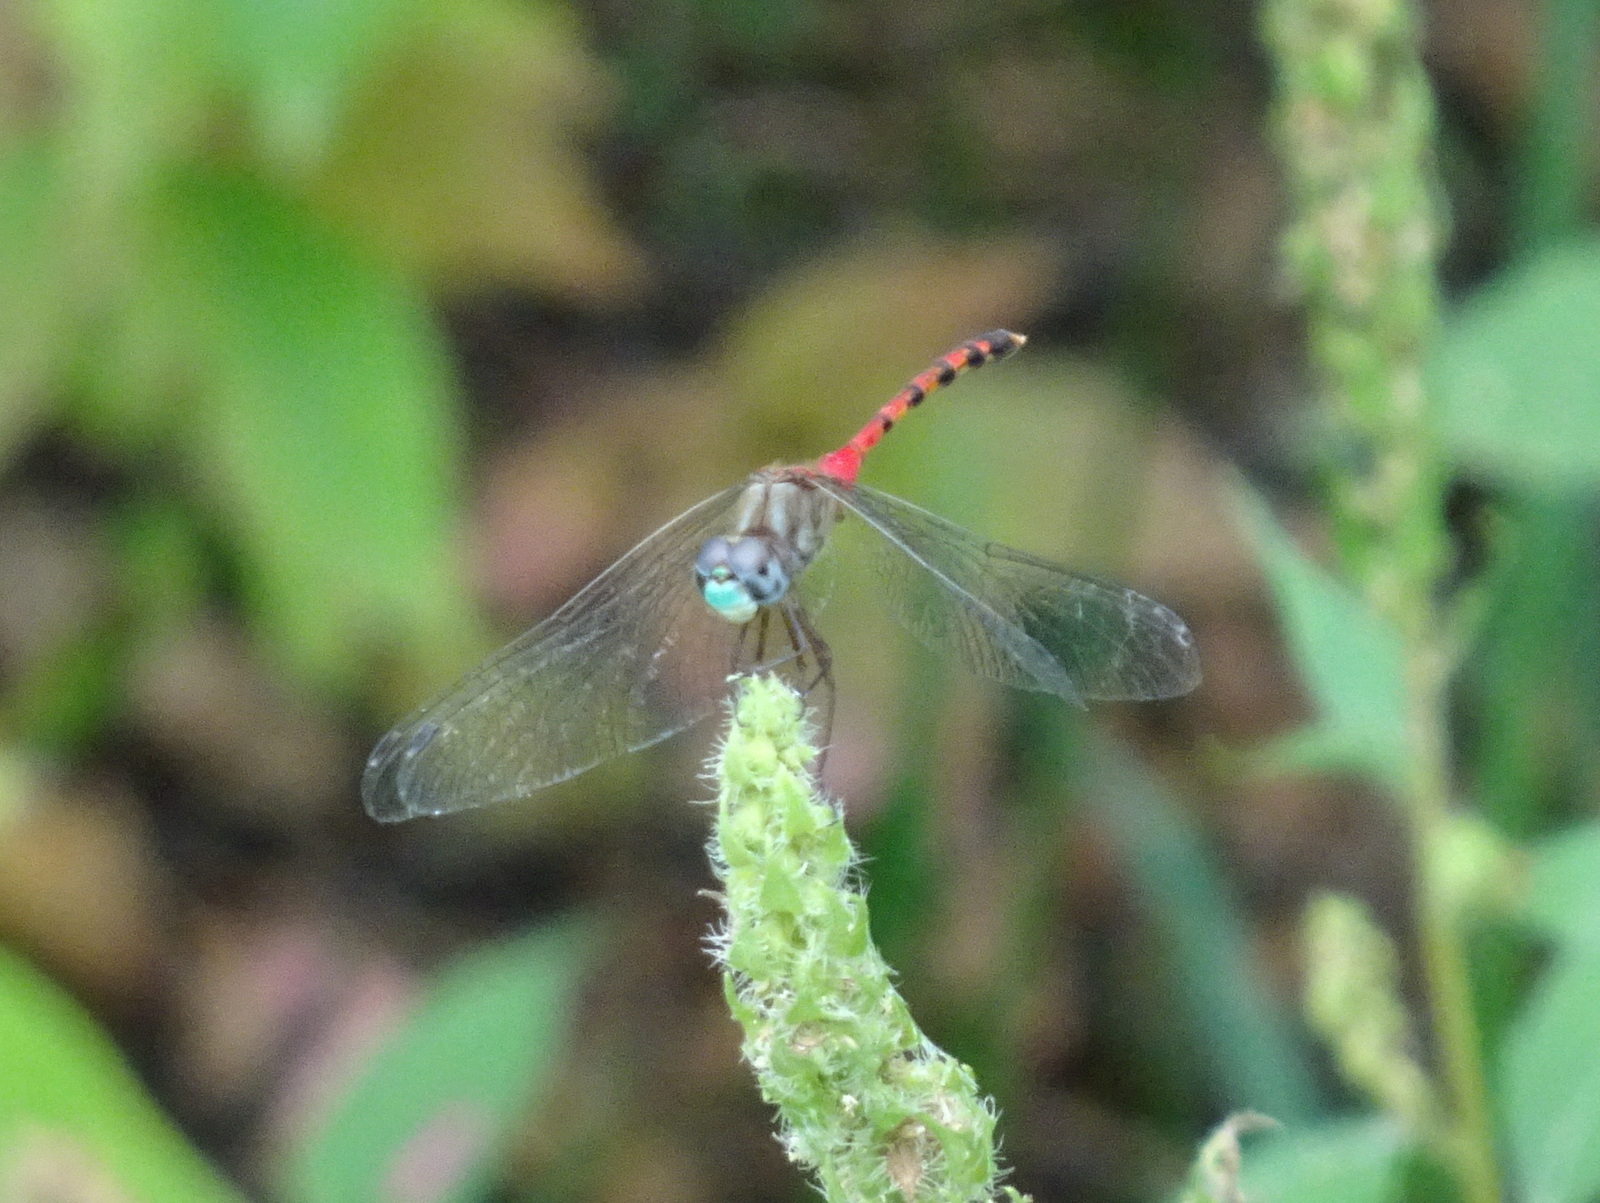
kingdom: Animalia
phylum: Arthropoda
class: Insecta
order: Odonata
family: Libellulidae
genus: Sympetrum
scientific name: Sympetrum ambiguum
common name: Blue-faced meadowhawk
